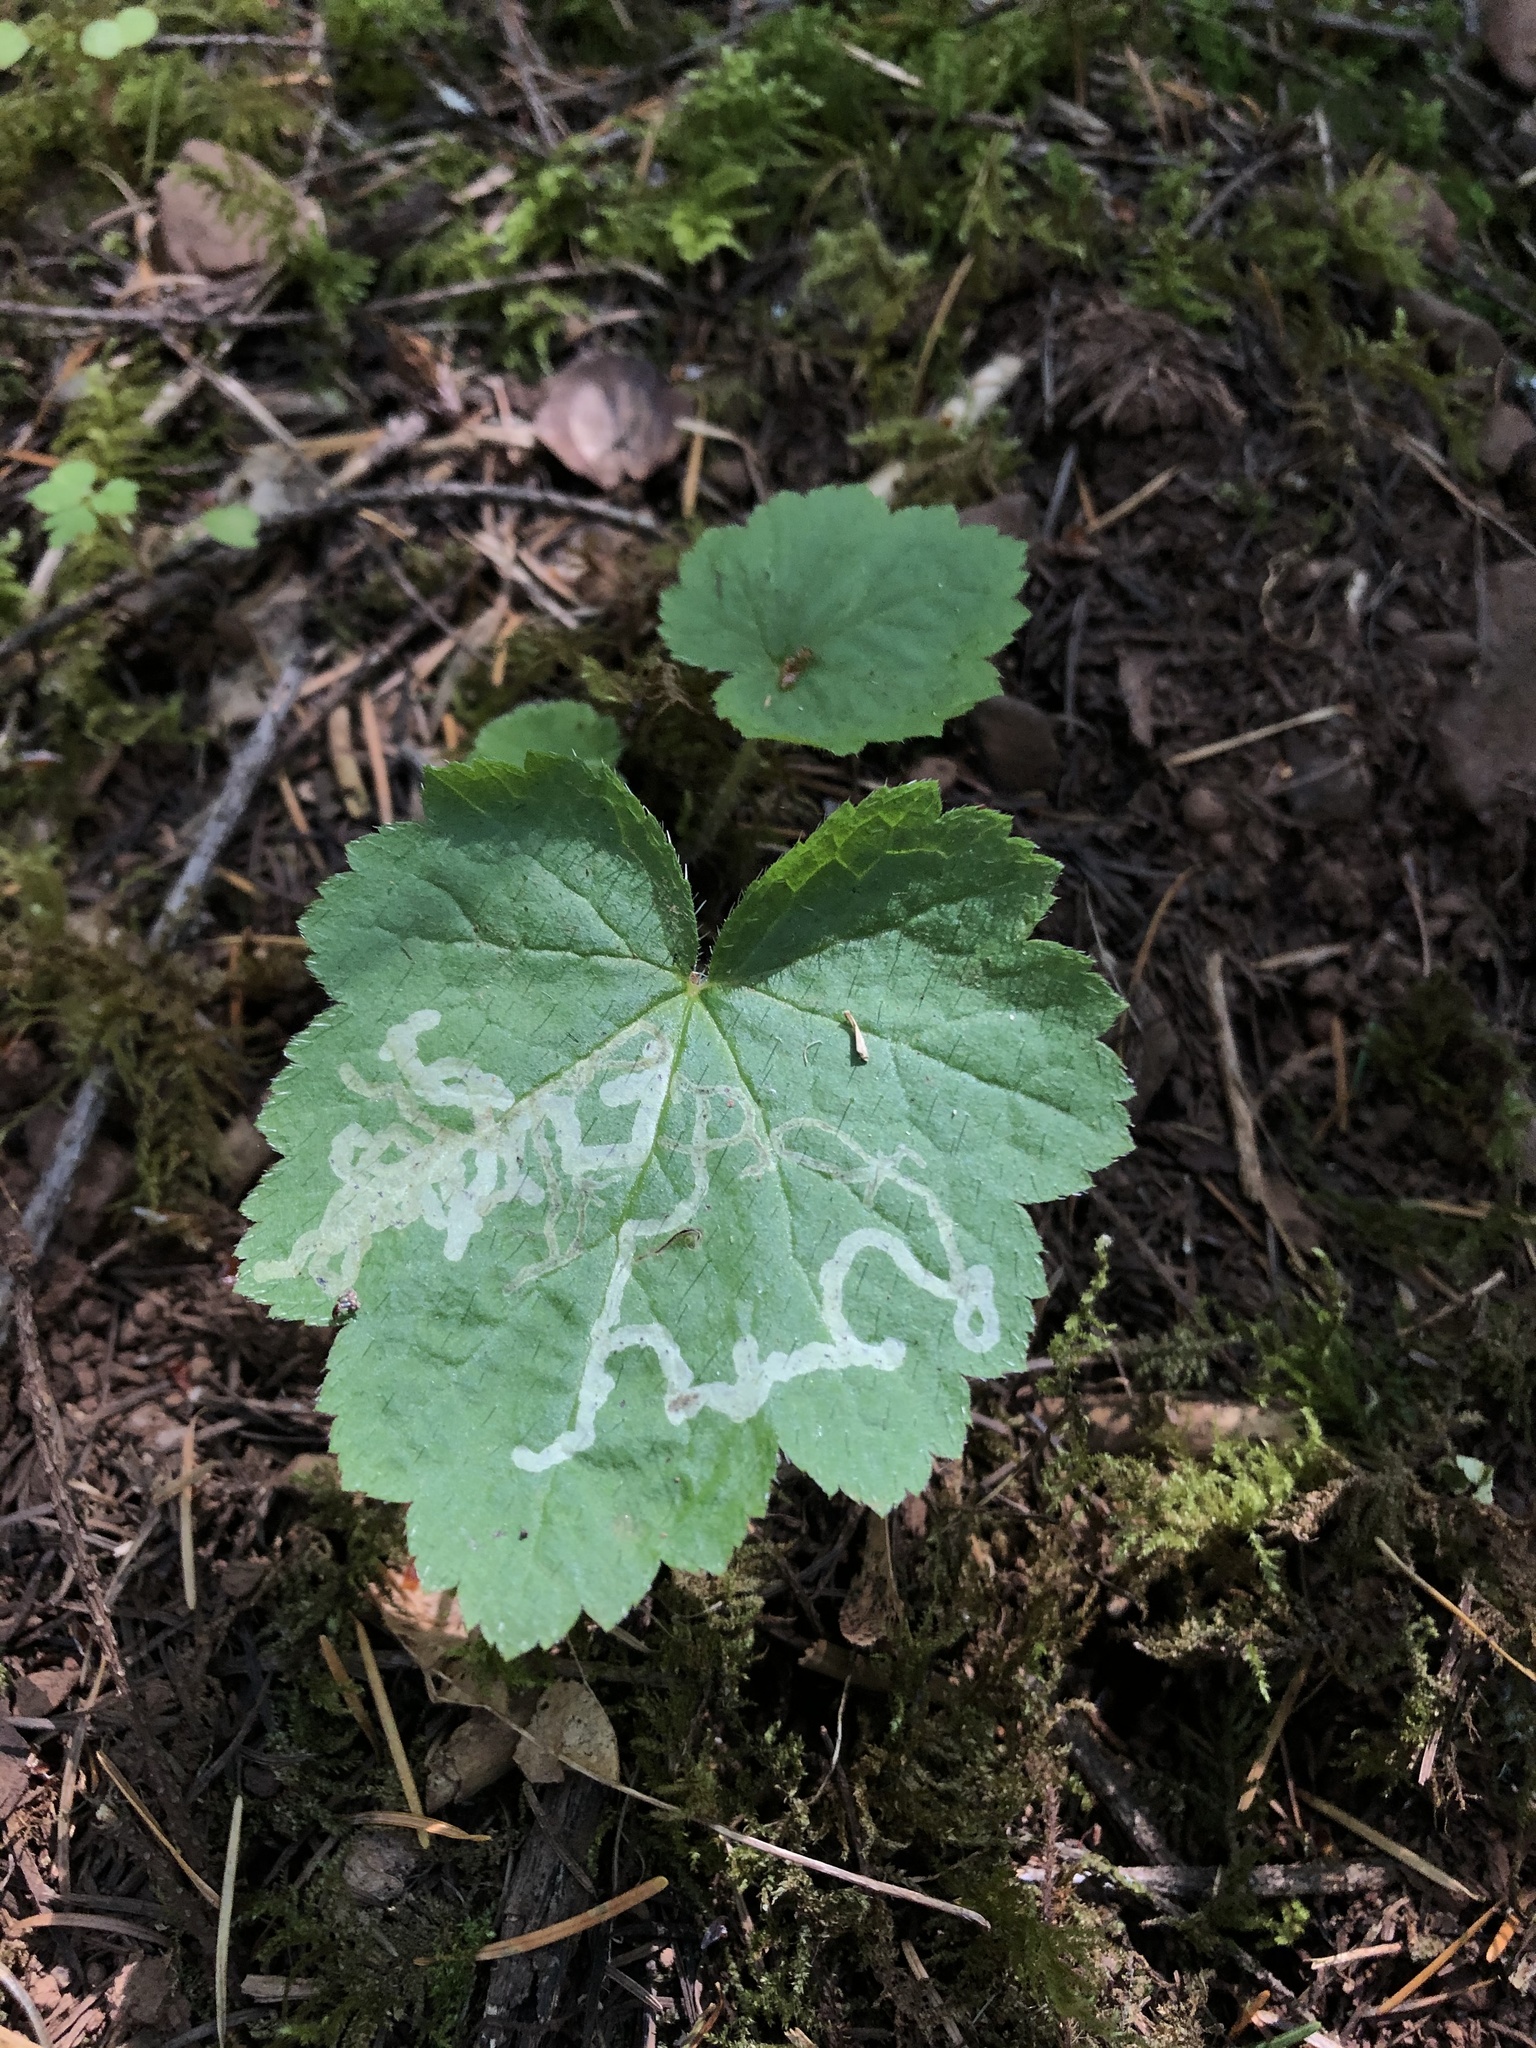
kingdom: Animalia
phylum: Arthropoda
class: Insecta
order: Diptera
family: Agromyzidae
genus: Phytomyza
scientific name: Phytomyza tiarellae
